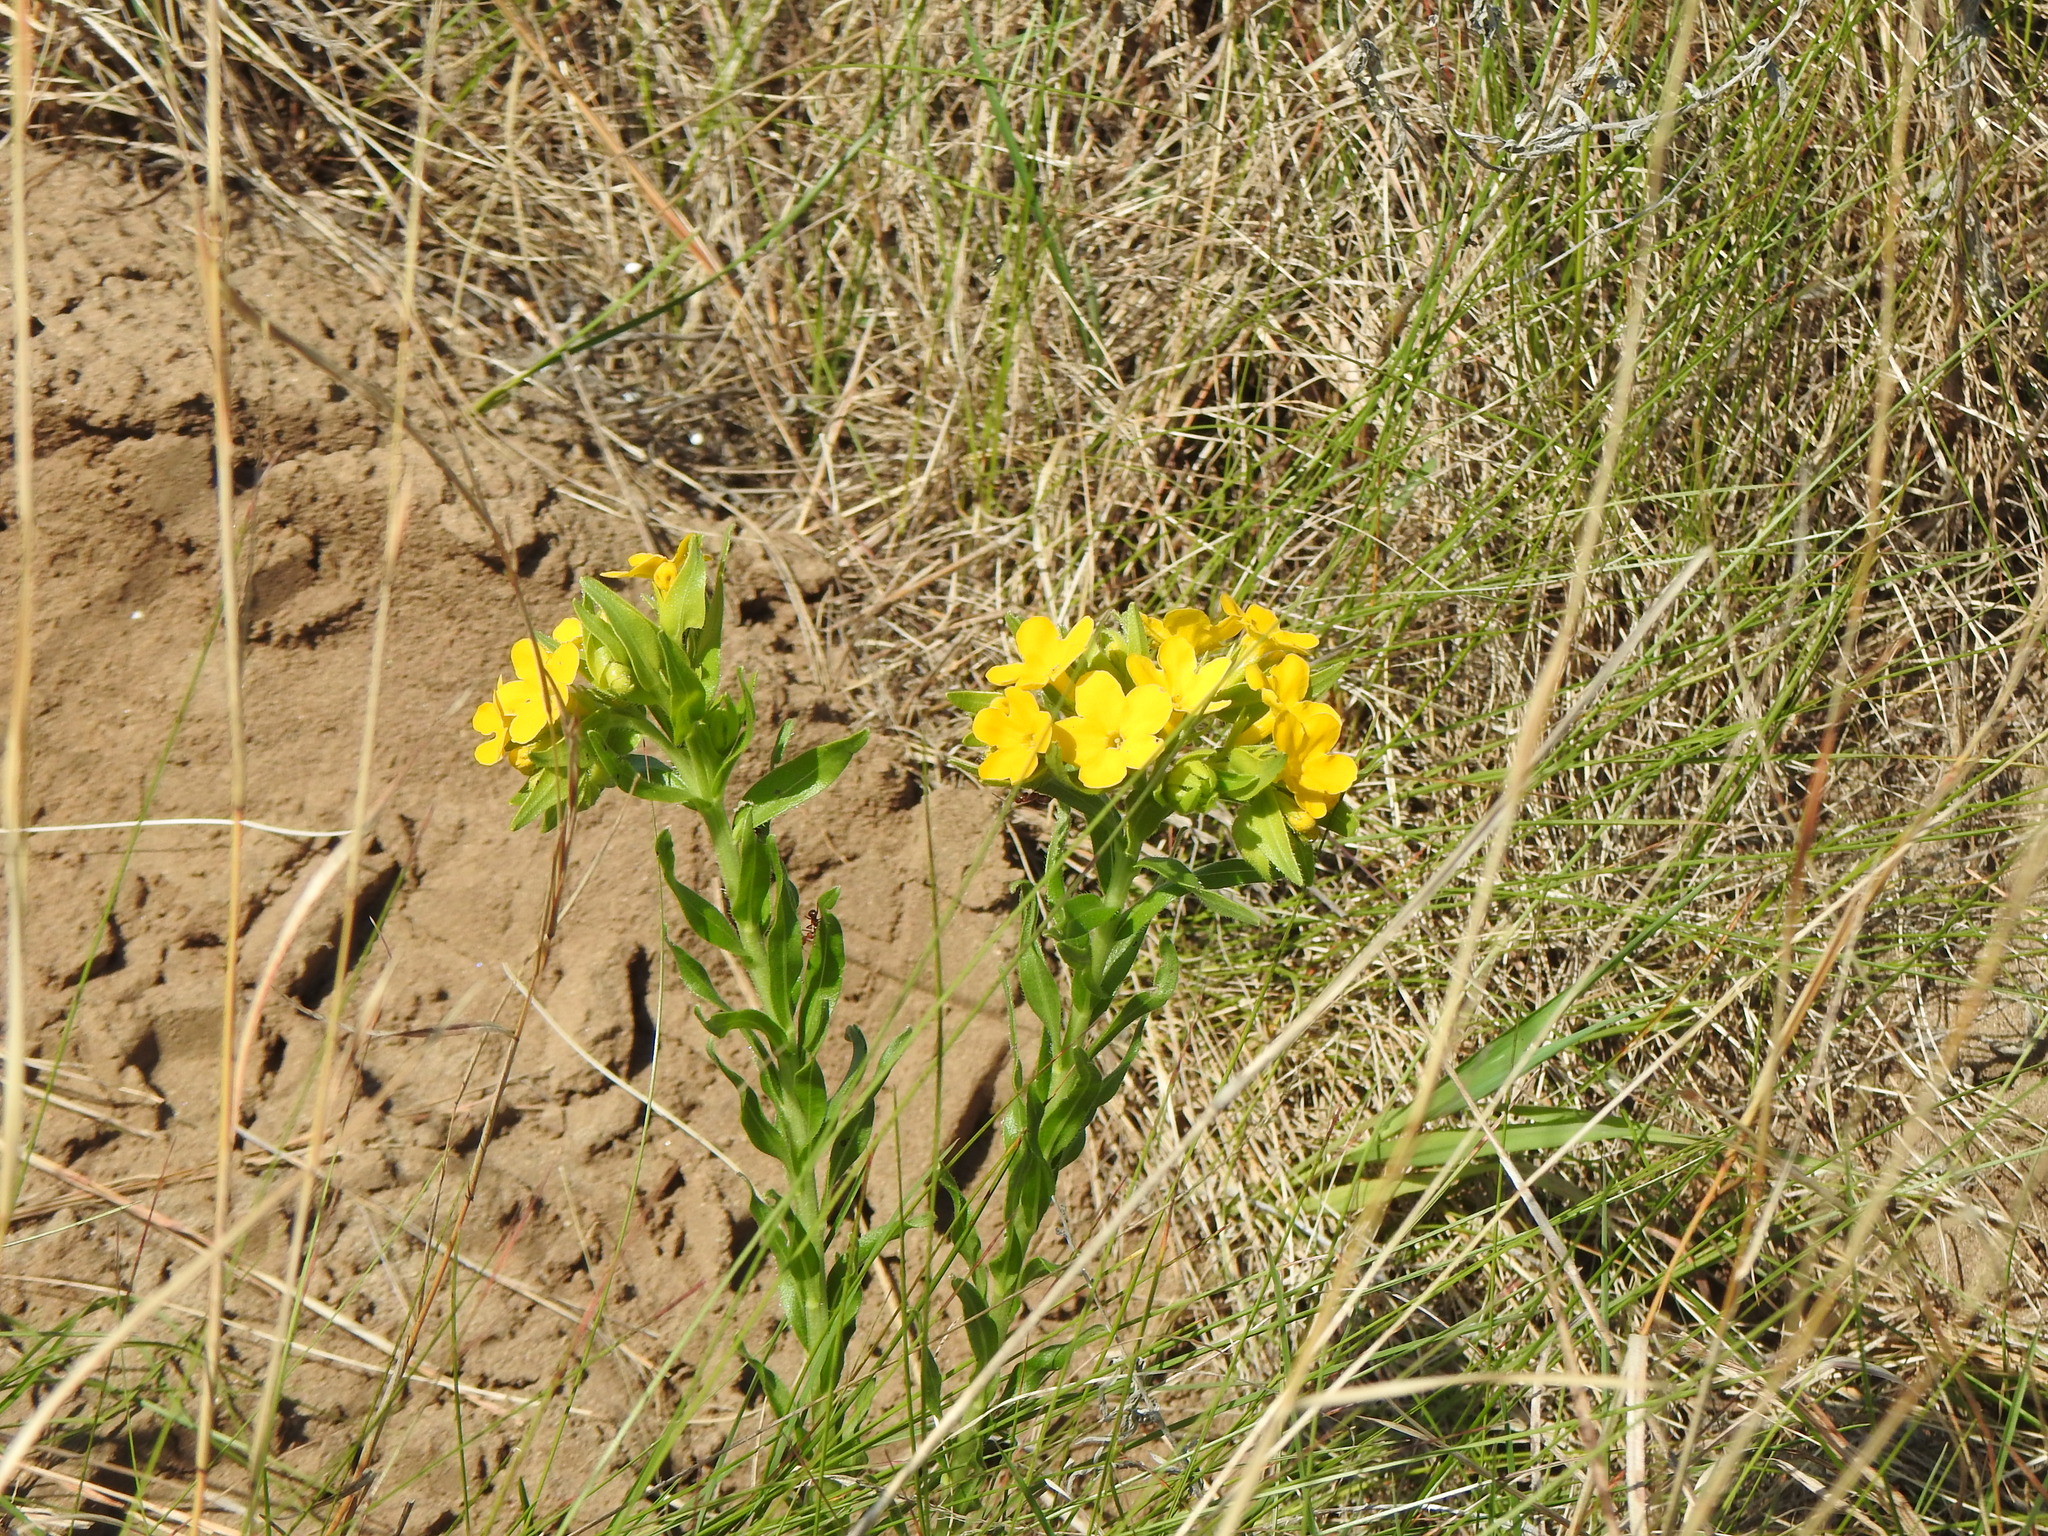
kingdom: Plantae
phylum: Tracheophyta
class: Magnoliopsida
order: Boraginales
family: Boraginaceae
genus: Lithospermum
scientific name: Lithospermum caroliniense
